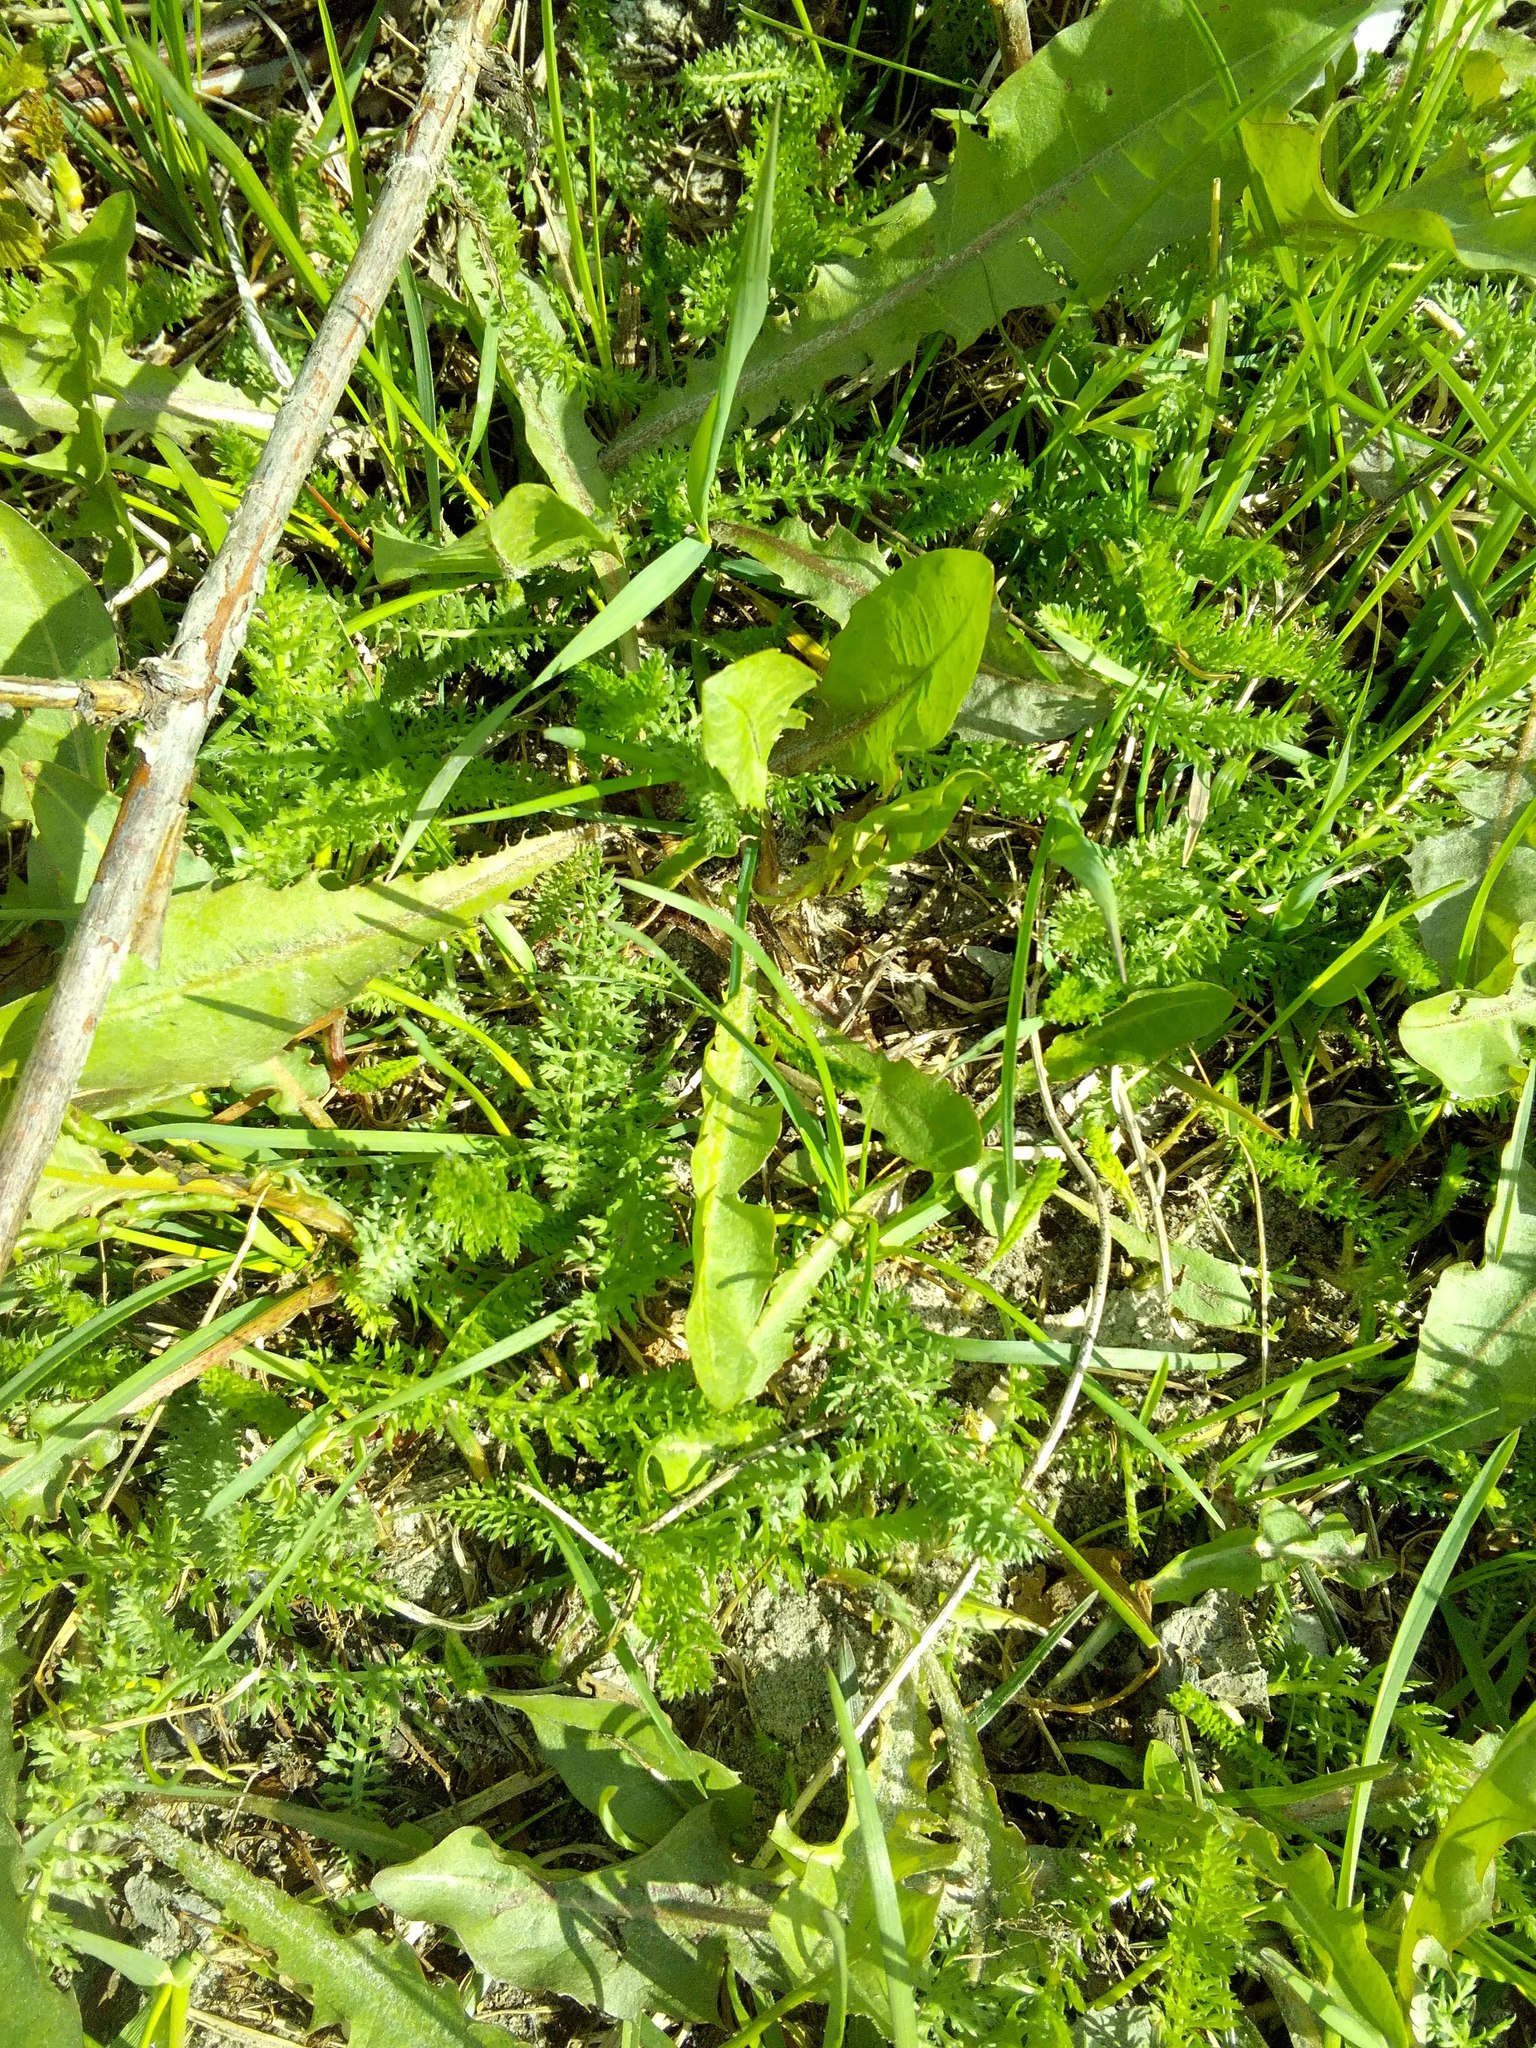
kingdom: Plantae
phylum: Tracheophyta
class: Magnoliopsida
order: Asterales
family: Asteraceae
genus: Achillea
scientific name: Achillea millefolium
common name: Yarrow
